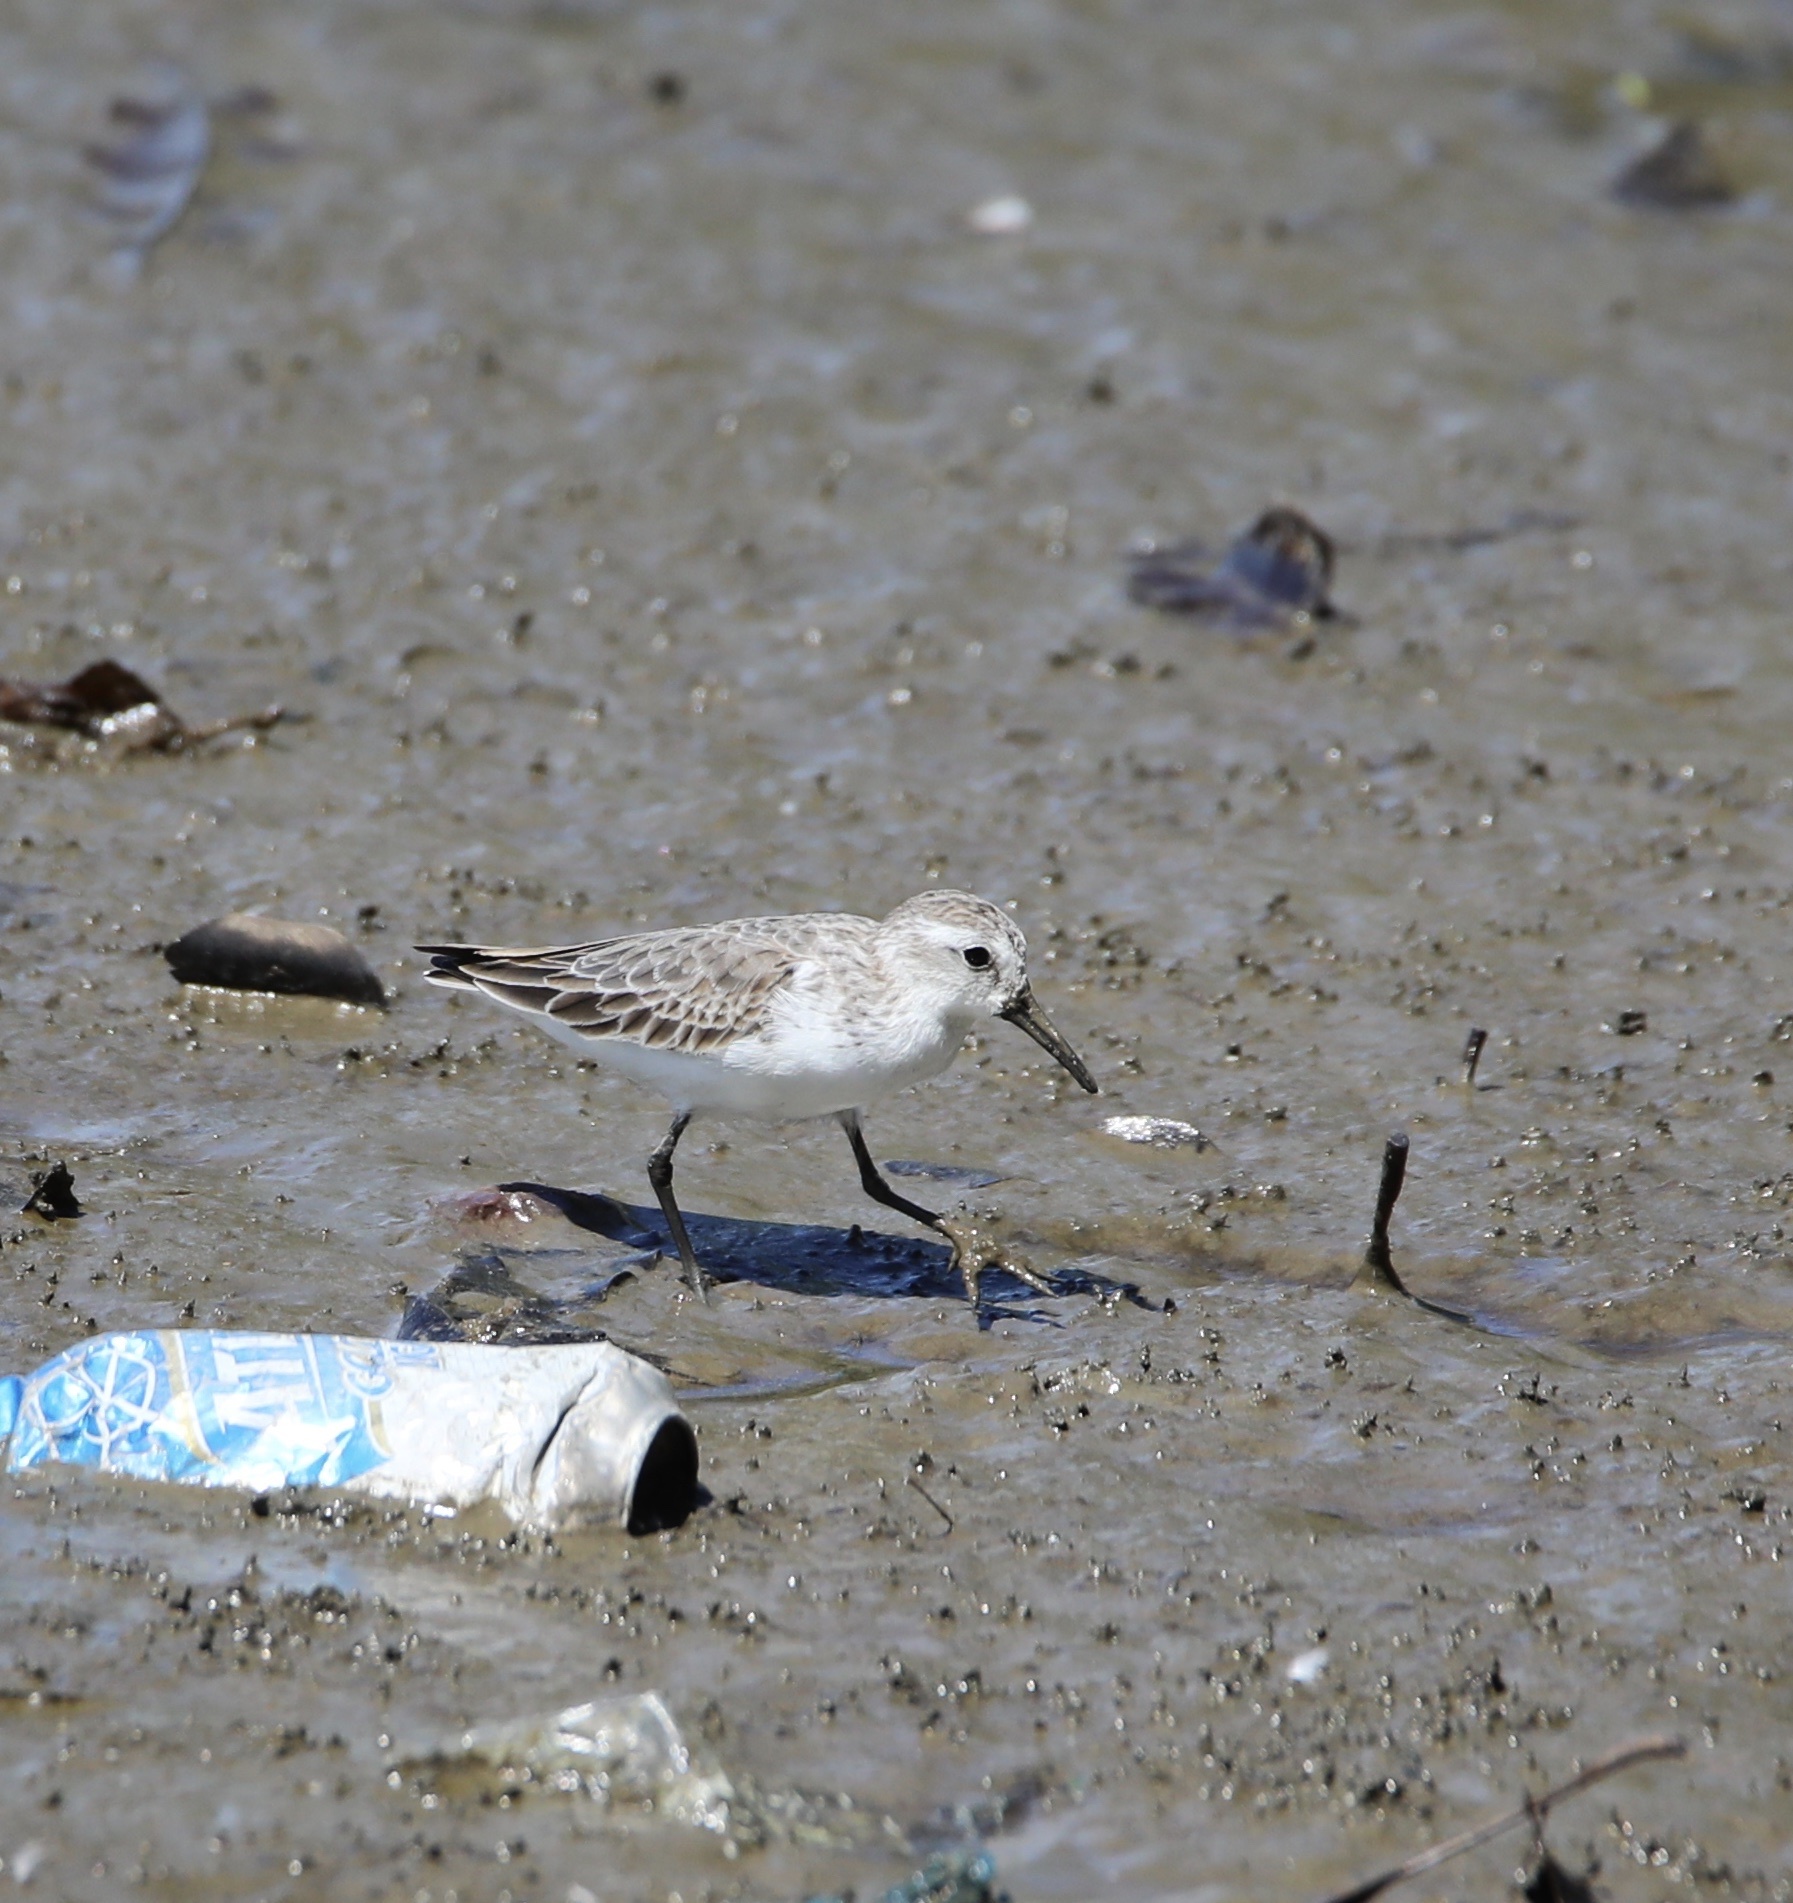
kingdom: Animalia
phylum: Chordata
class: Aves
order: Charadriiformes
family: Scolopacidae
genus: Calidris
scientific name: Calidris mauri
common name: Western sandpiper
